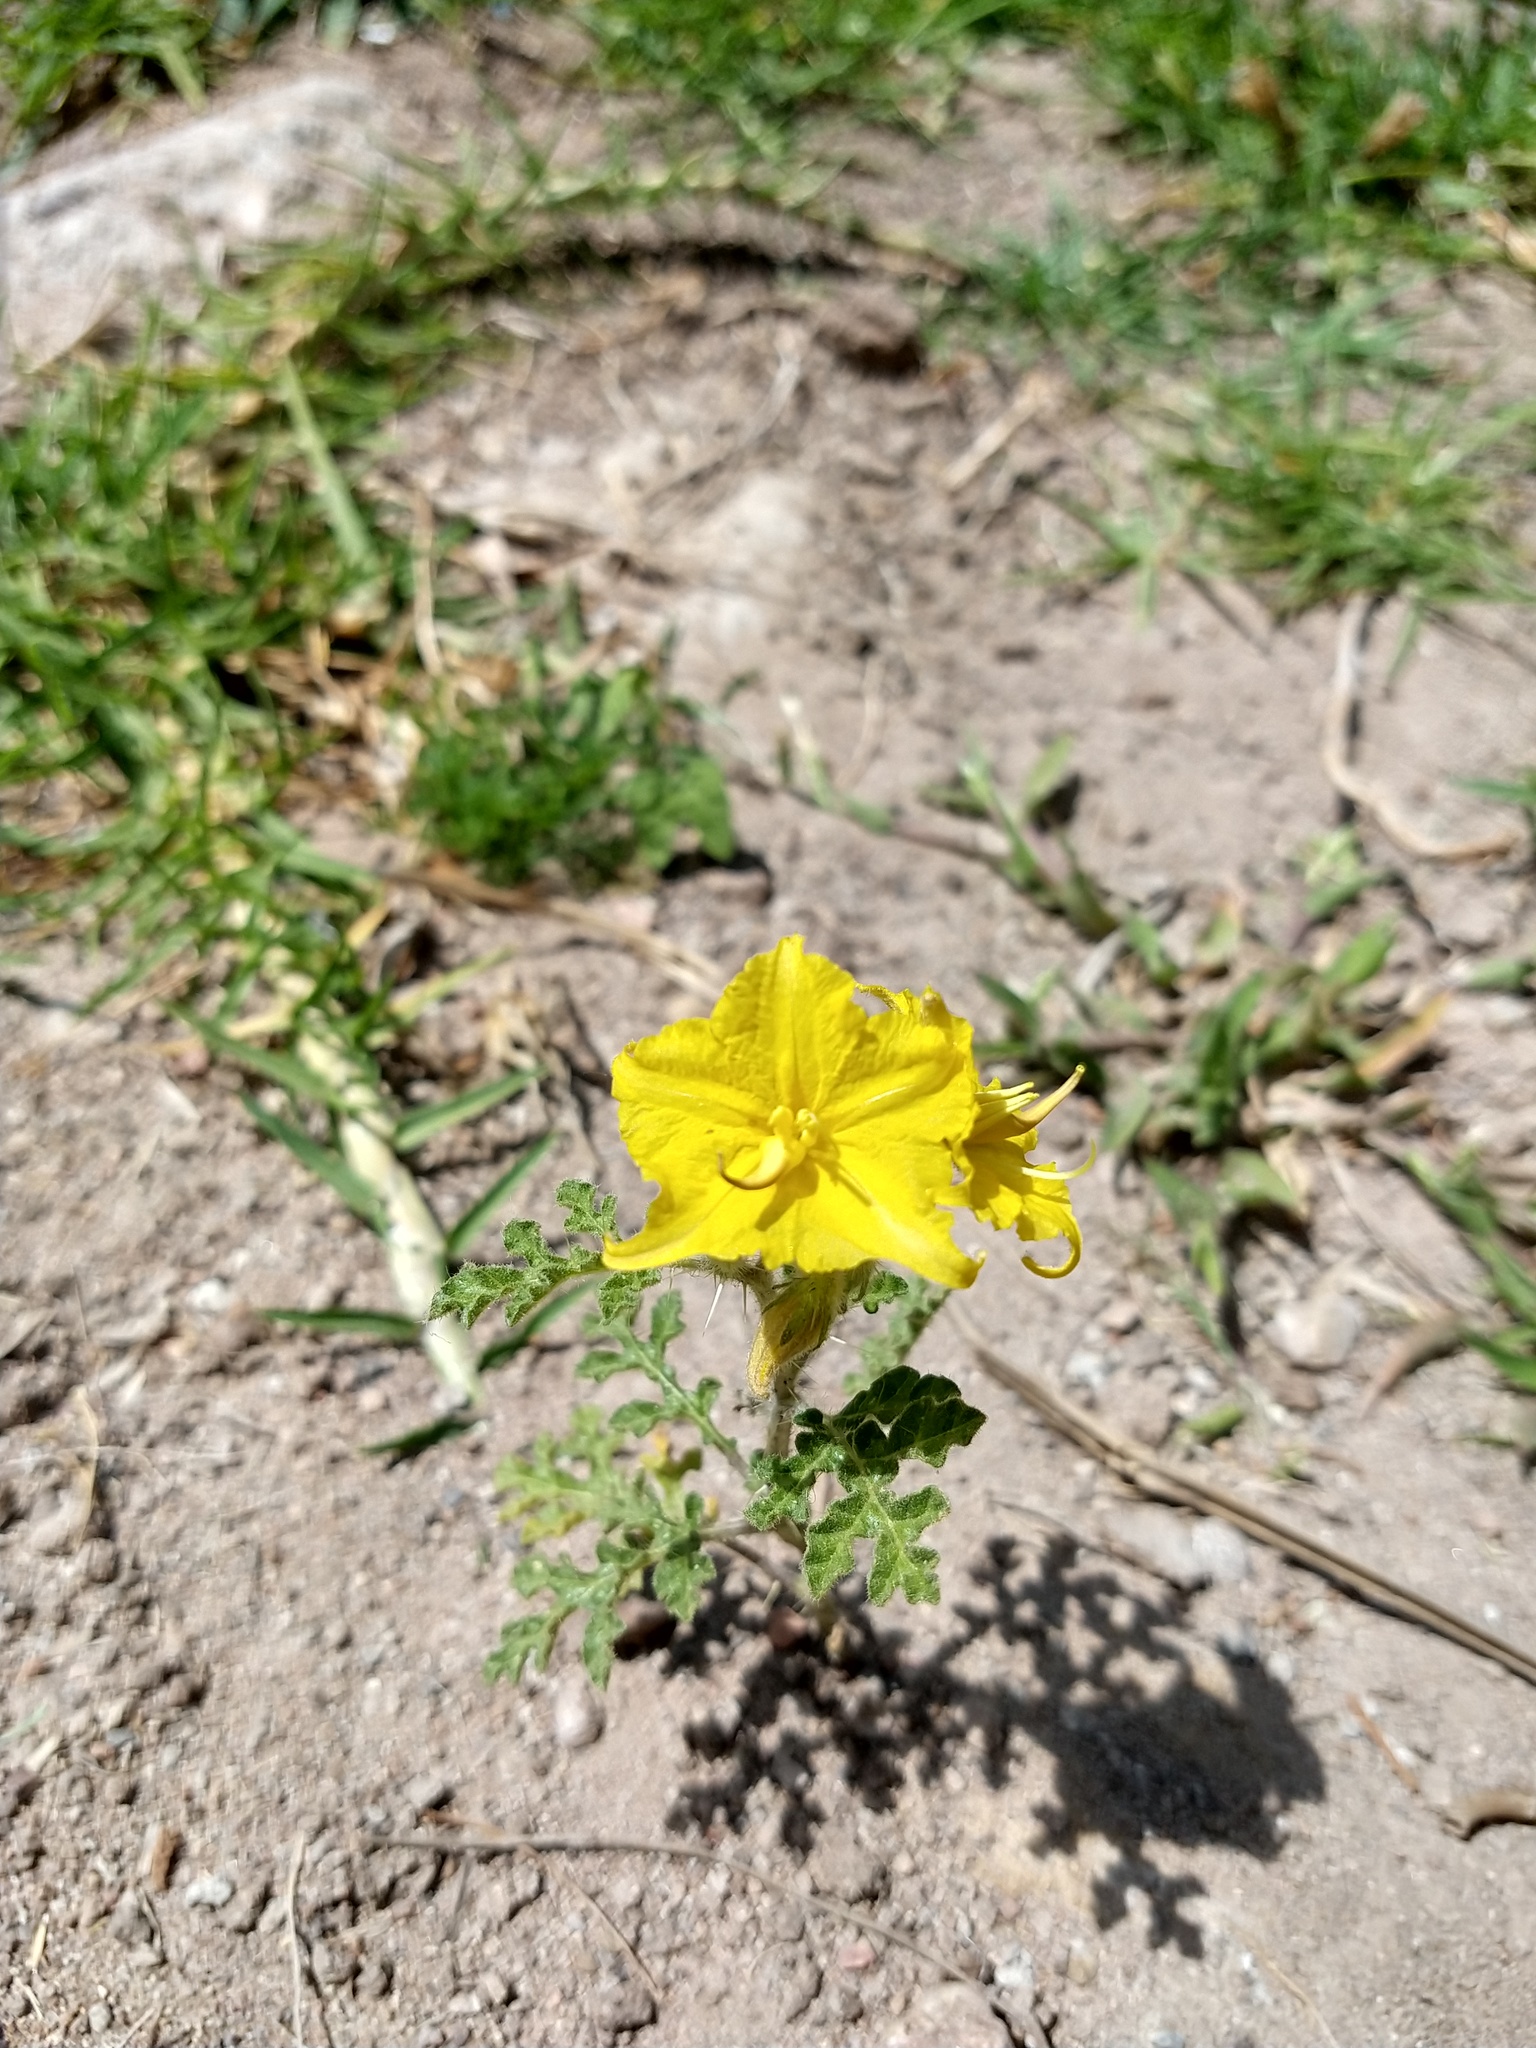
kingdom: Plantae
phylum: Tracheophyta
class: Magnoliopsida
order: Solanales
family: Solanaceae
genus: Solanum
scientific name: Solanum angustifolium
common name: Buffalobur nightshade
